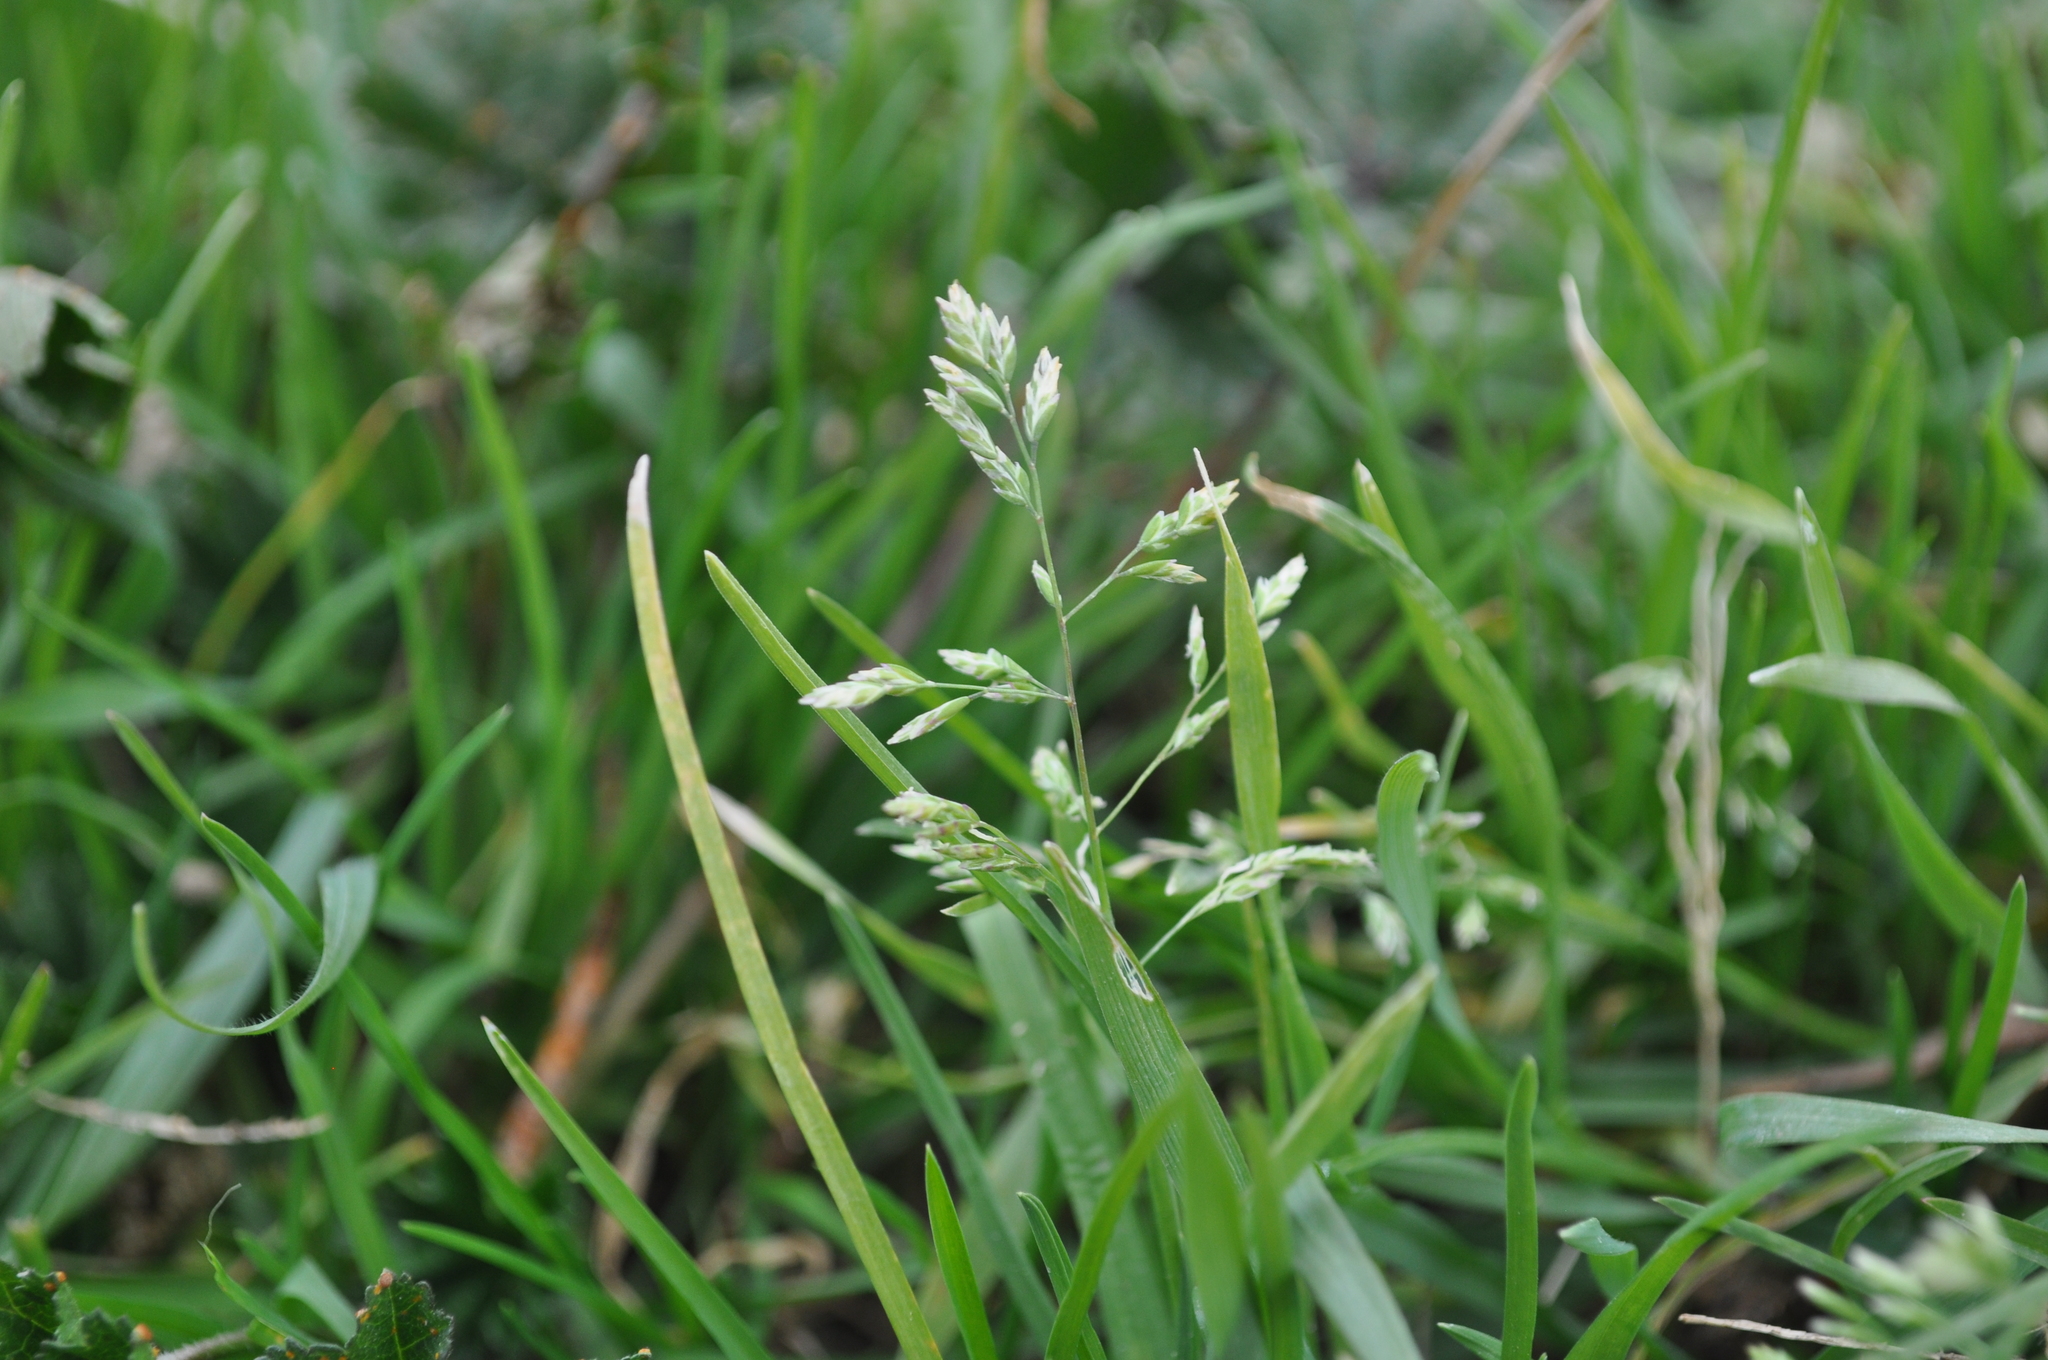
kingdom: Plantae
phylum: Tracheophyta
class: Liliopsida
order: Poales
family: Poaceae
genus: Poa
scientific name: Poa annua
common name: Annual bluegrass
